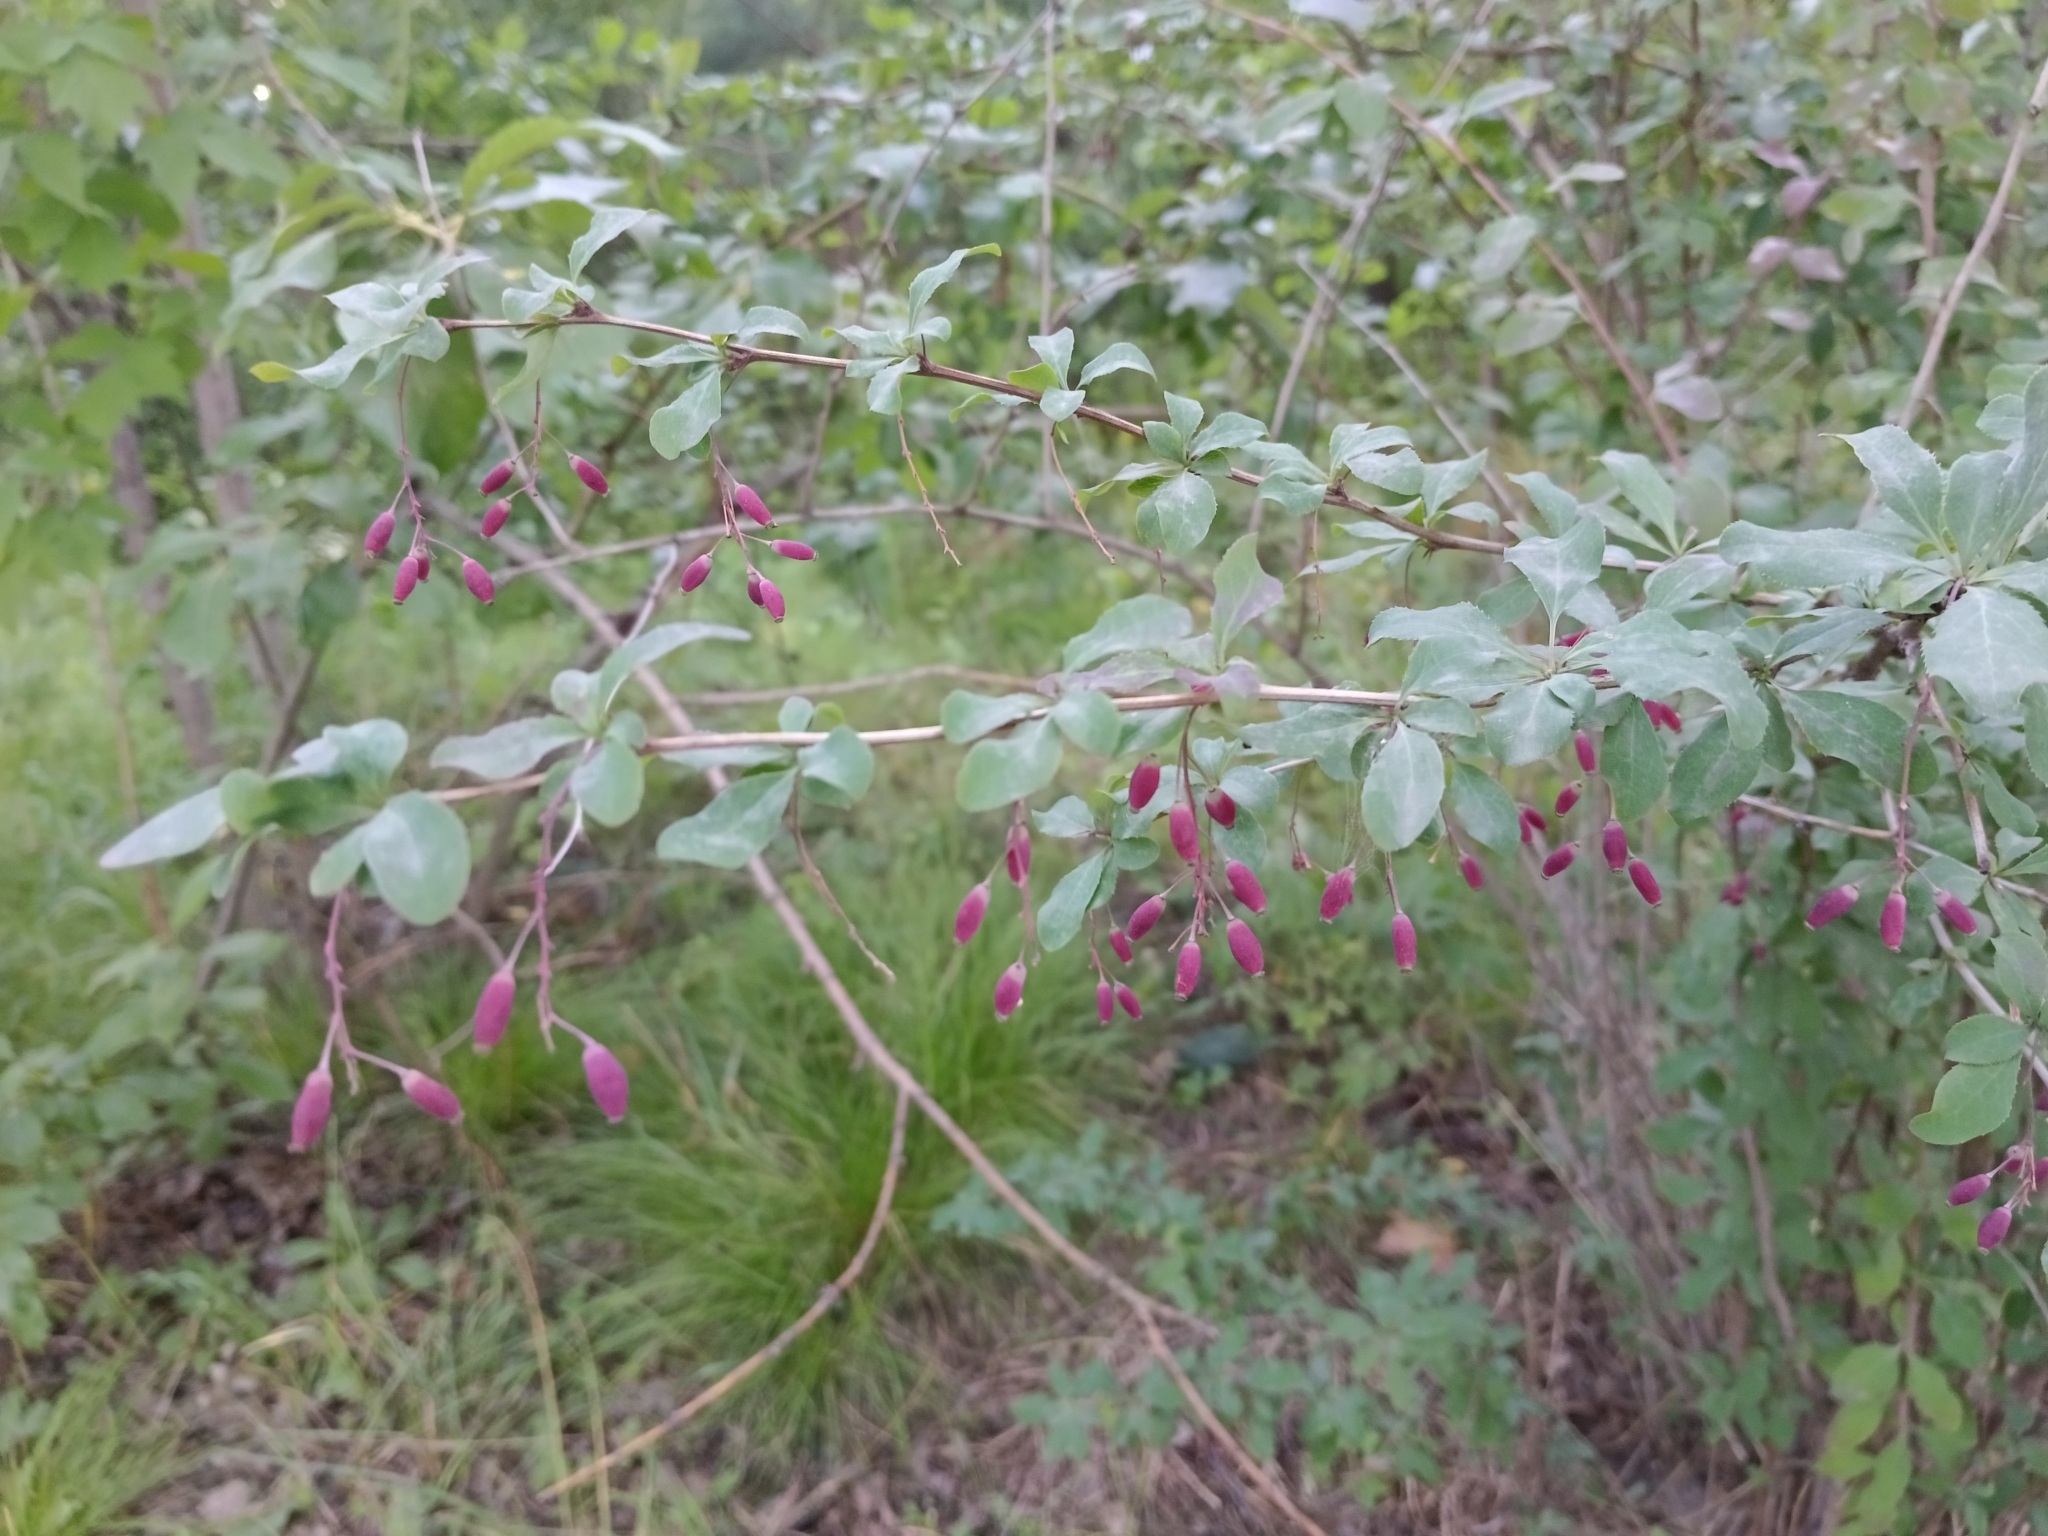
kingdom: Plantae
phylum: Tracheophyta
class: Magnoliopsida
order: Ranunculales
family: Berberidaceae
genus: Berberis
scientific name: Berberis vulgaris
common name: Barberry
